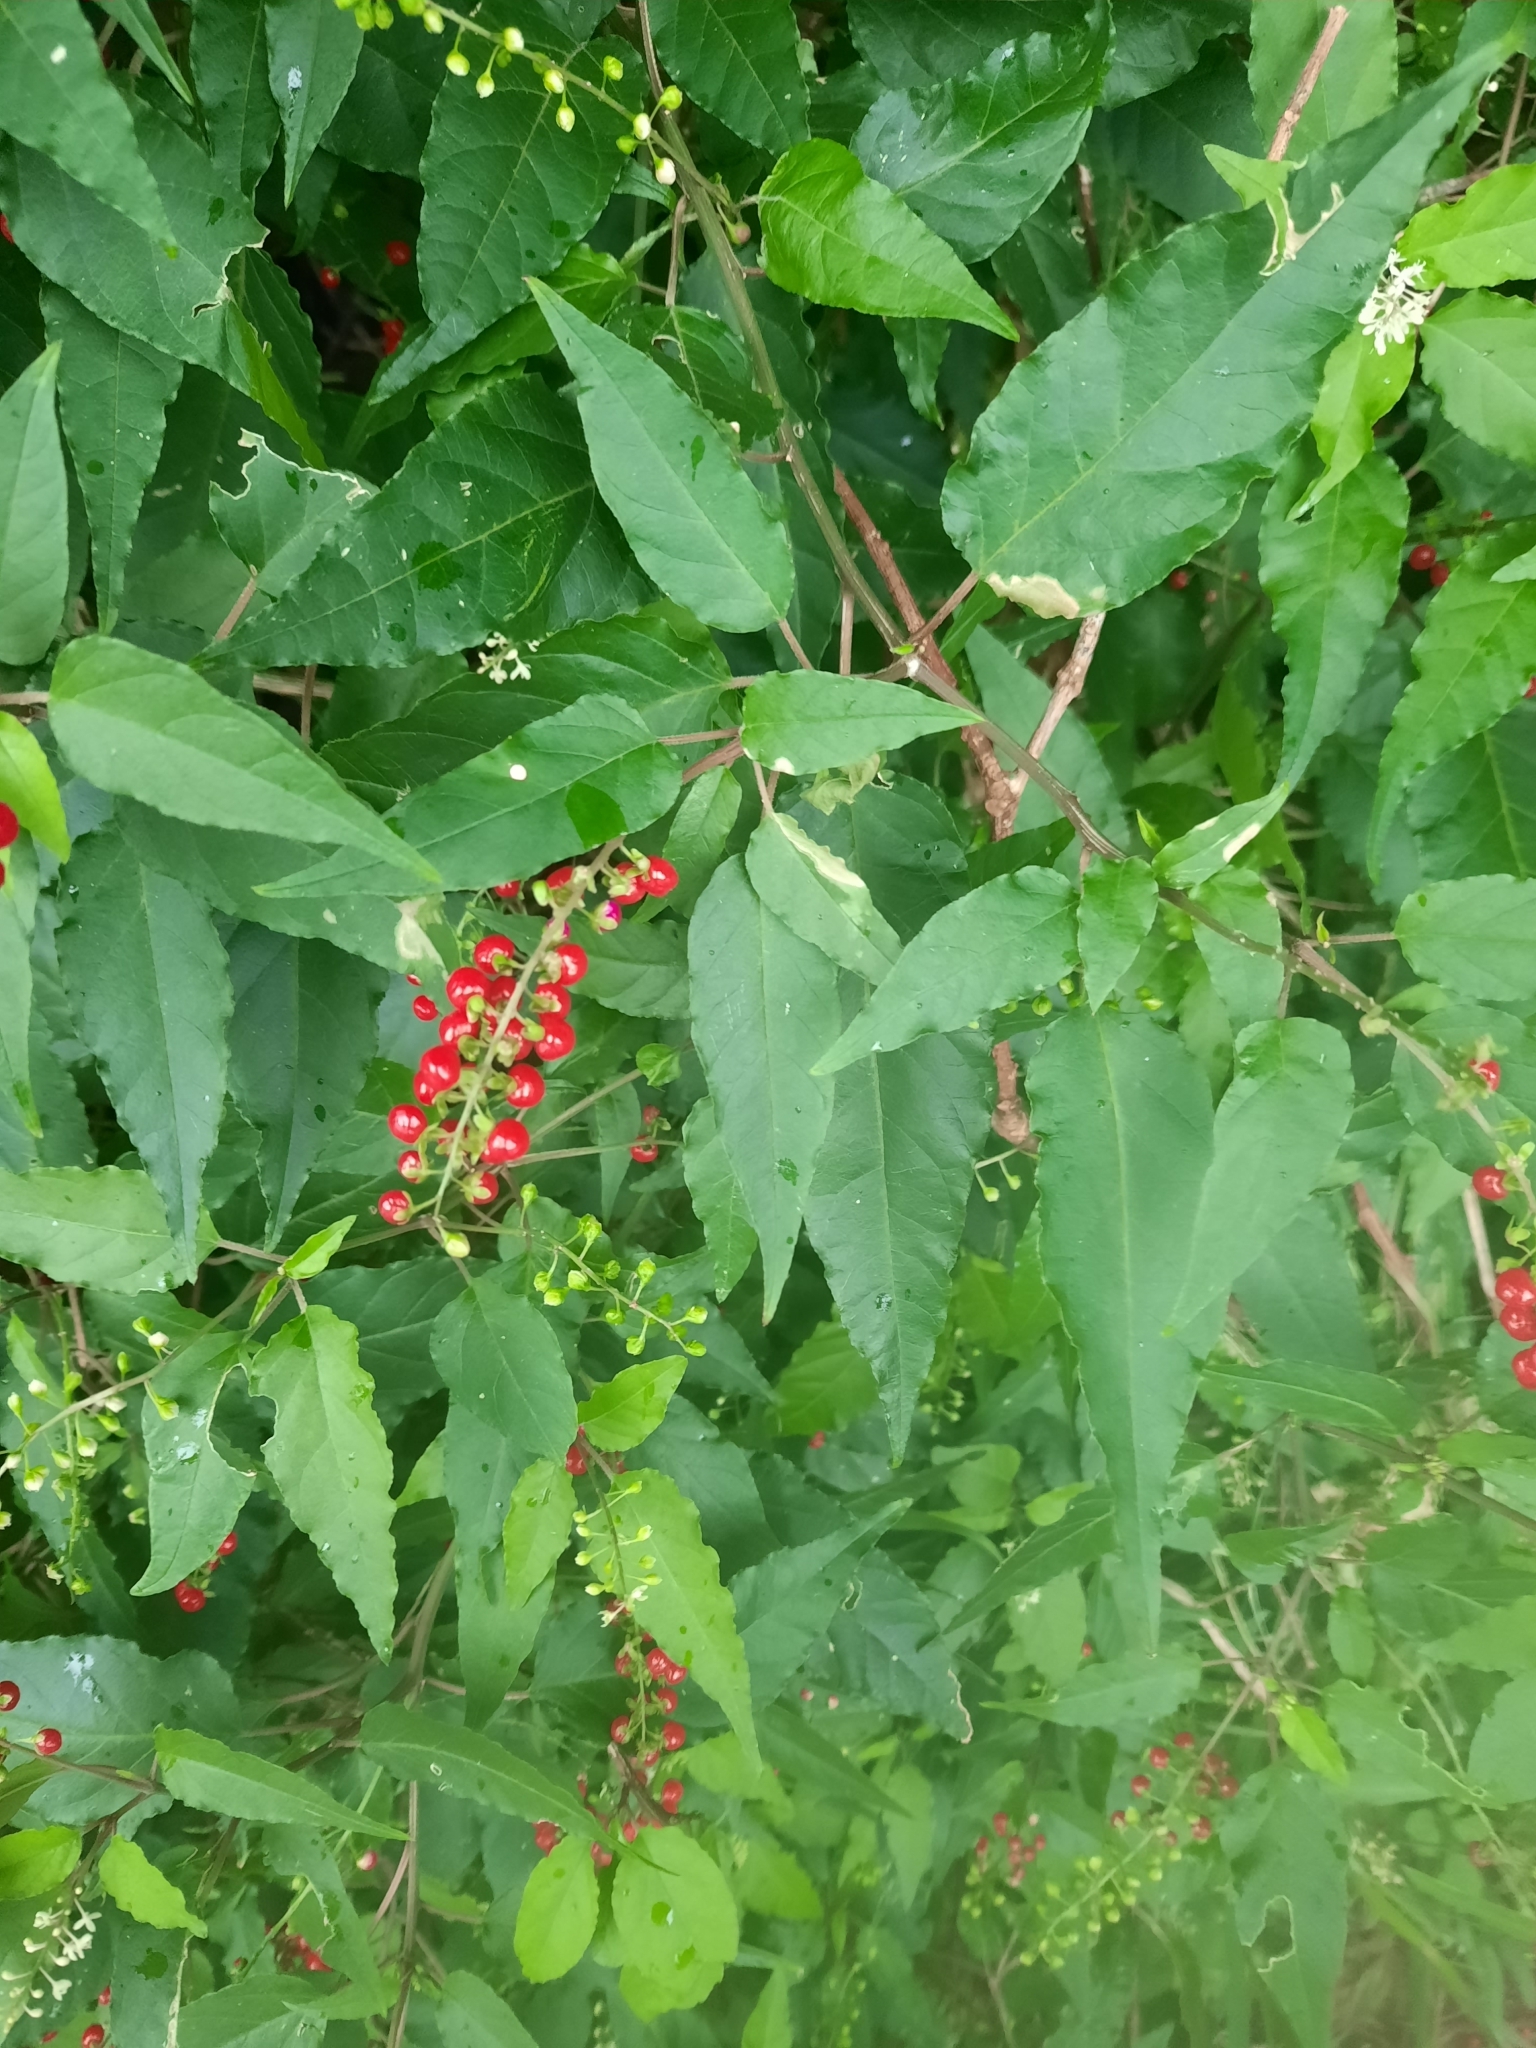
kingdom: Plantae
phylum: Tracheophyta
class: Magnoliopsida
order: Caryophyllales
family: Phytolaccaceae
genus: Rivina
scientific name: Rivina humilis
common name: Rougeplant
